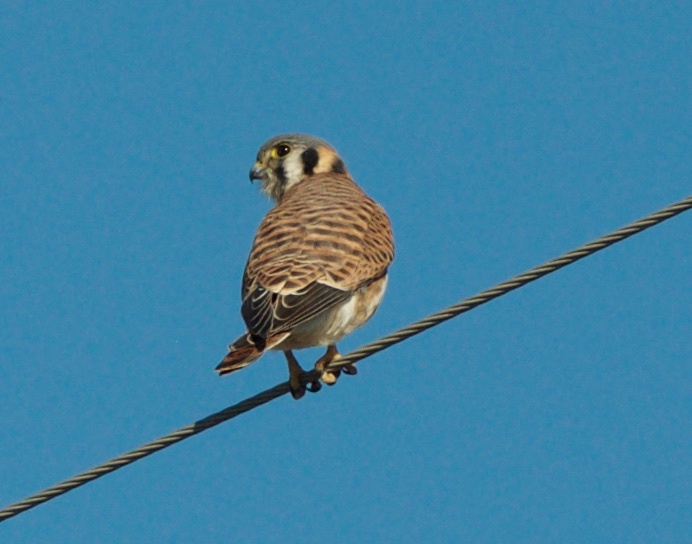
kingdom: Animalia
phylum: Chordata
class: Aves
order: Falconiformes
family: Falconidae
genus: Falco
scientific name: Falco sparverius
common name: American kestrel
